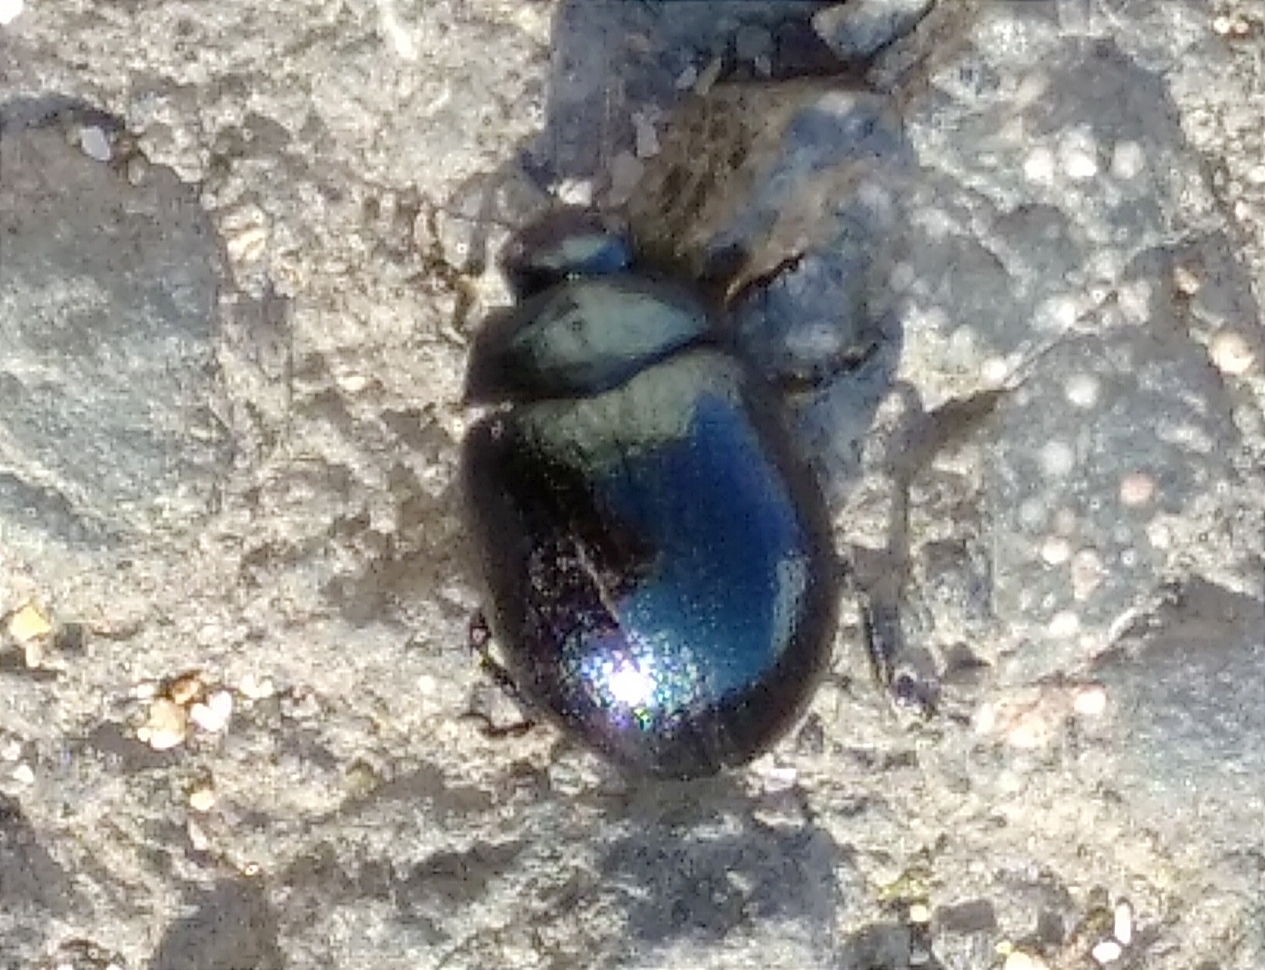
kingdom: Animalia
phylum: Arthropoda
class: Insecta
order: Coleoptera
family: Chrysomelidae
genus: Chrysolina
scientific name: Chrysolina haemoptera
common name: Plantain leaf beetle
